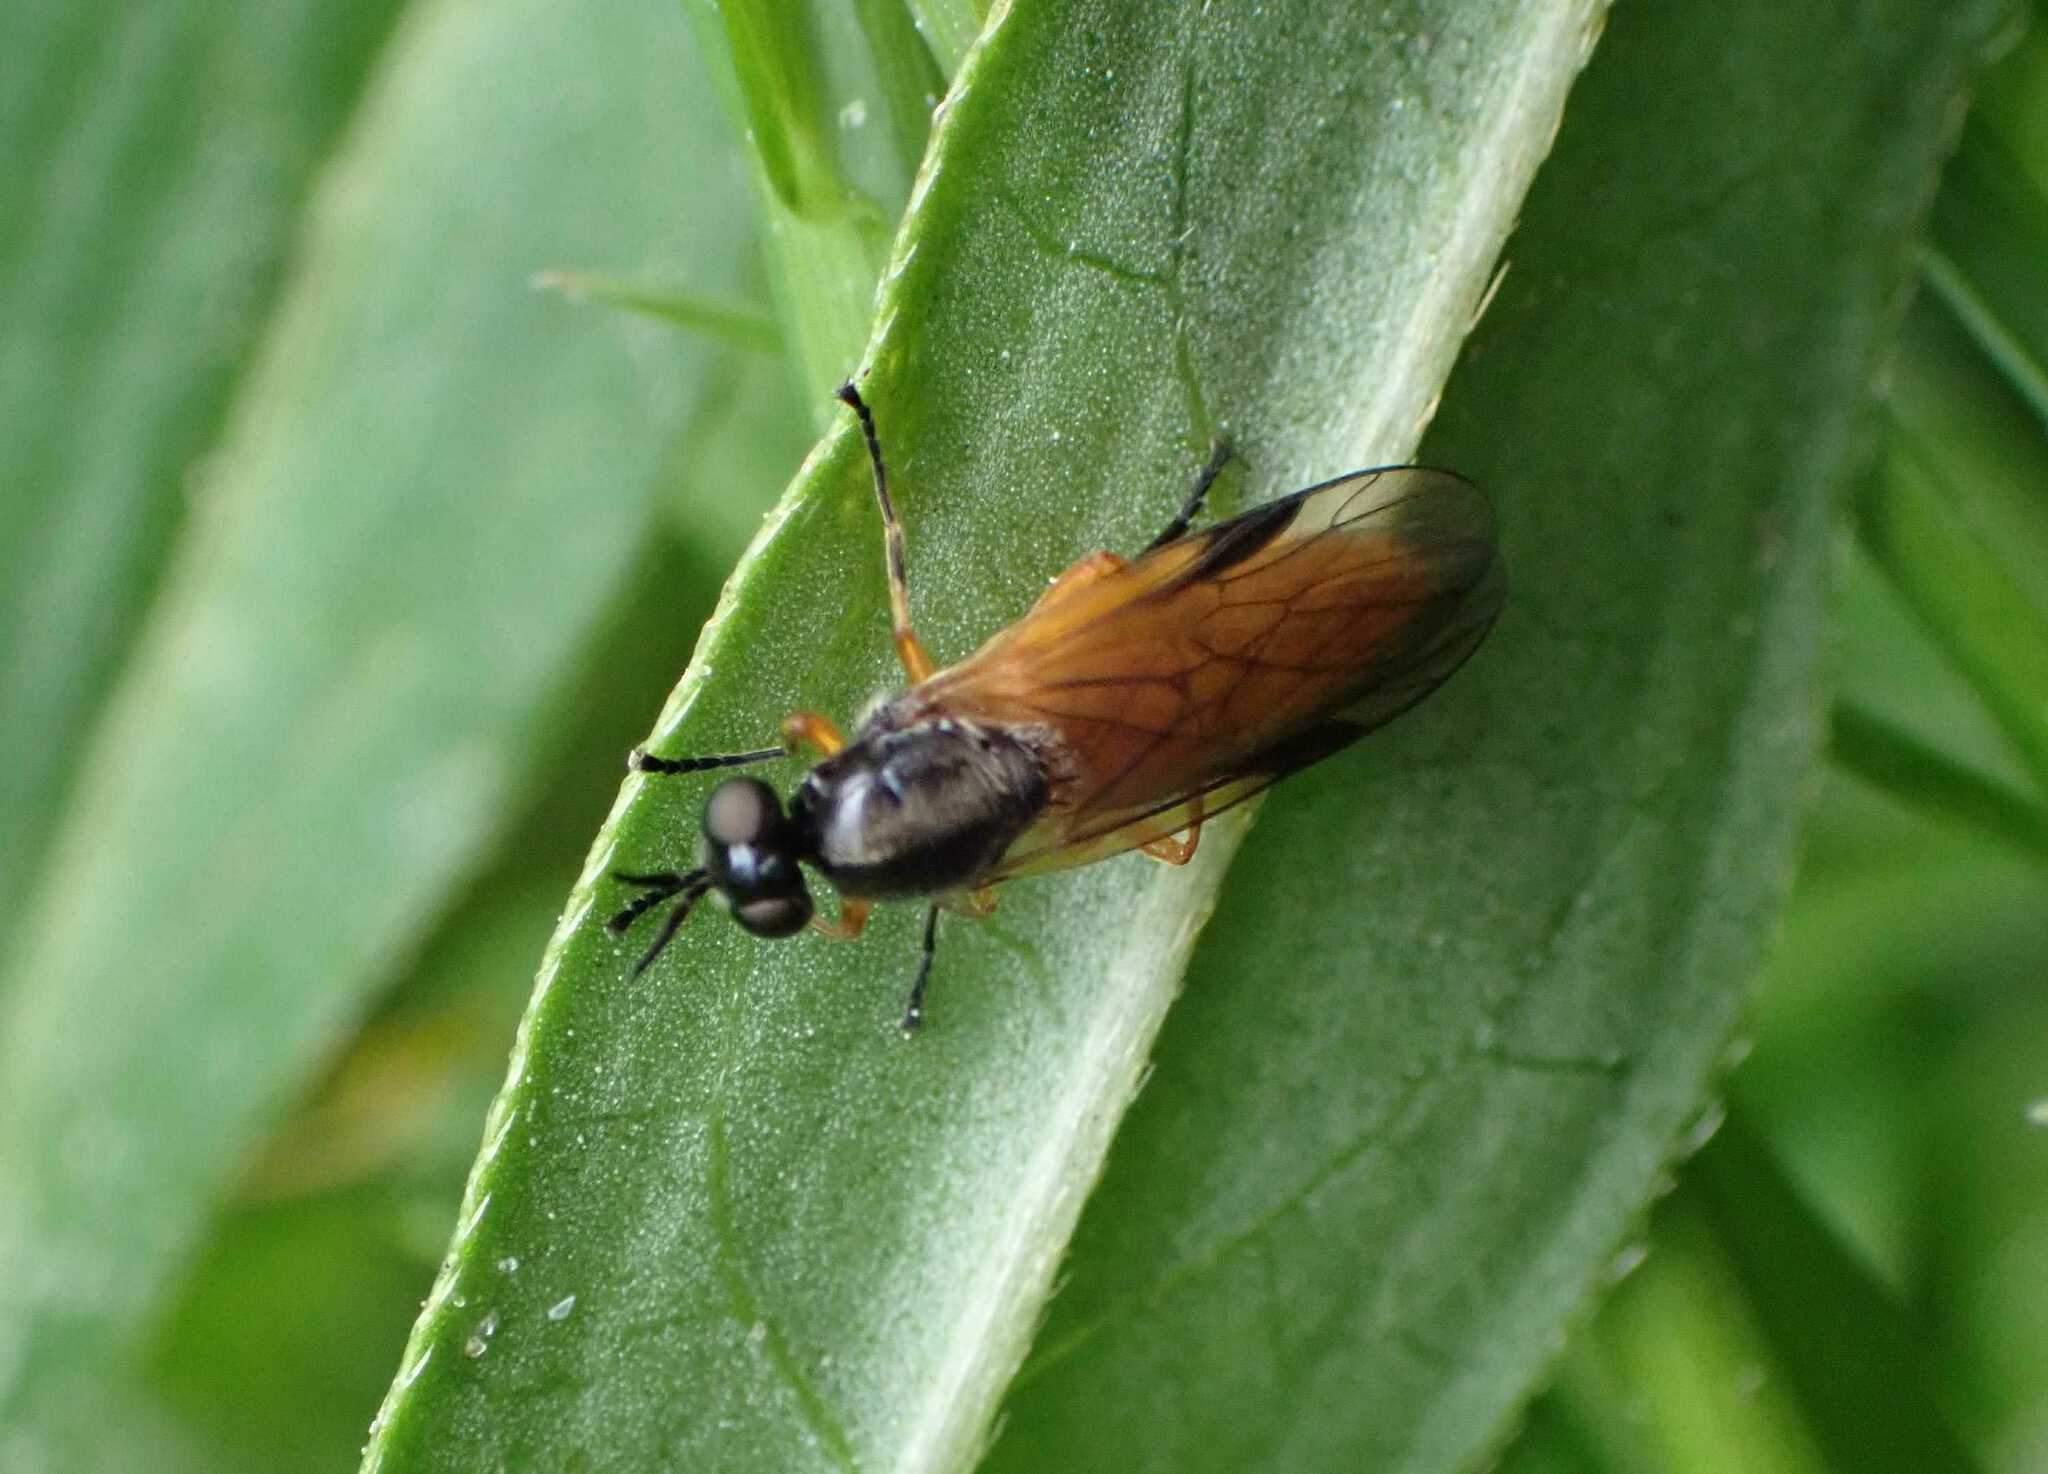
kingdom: Animalia
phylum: Arthropoda
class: Insecta
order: Diptera
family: Stratiomyidae
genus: Beris
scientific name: Beris vallata
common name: Common orange legionnaire
